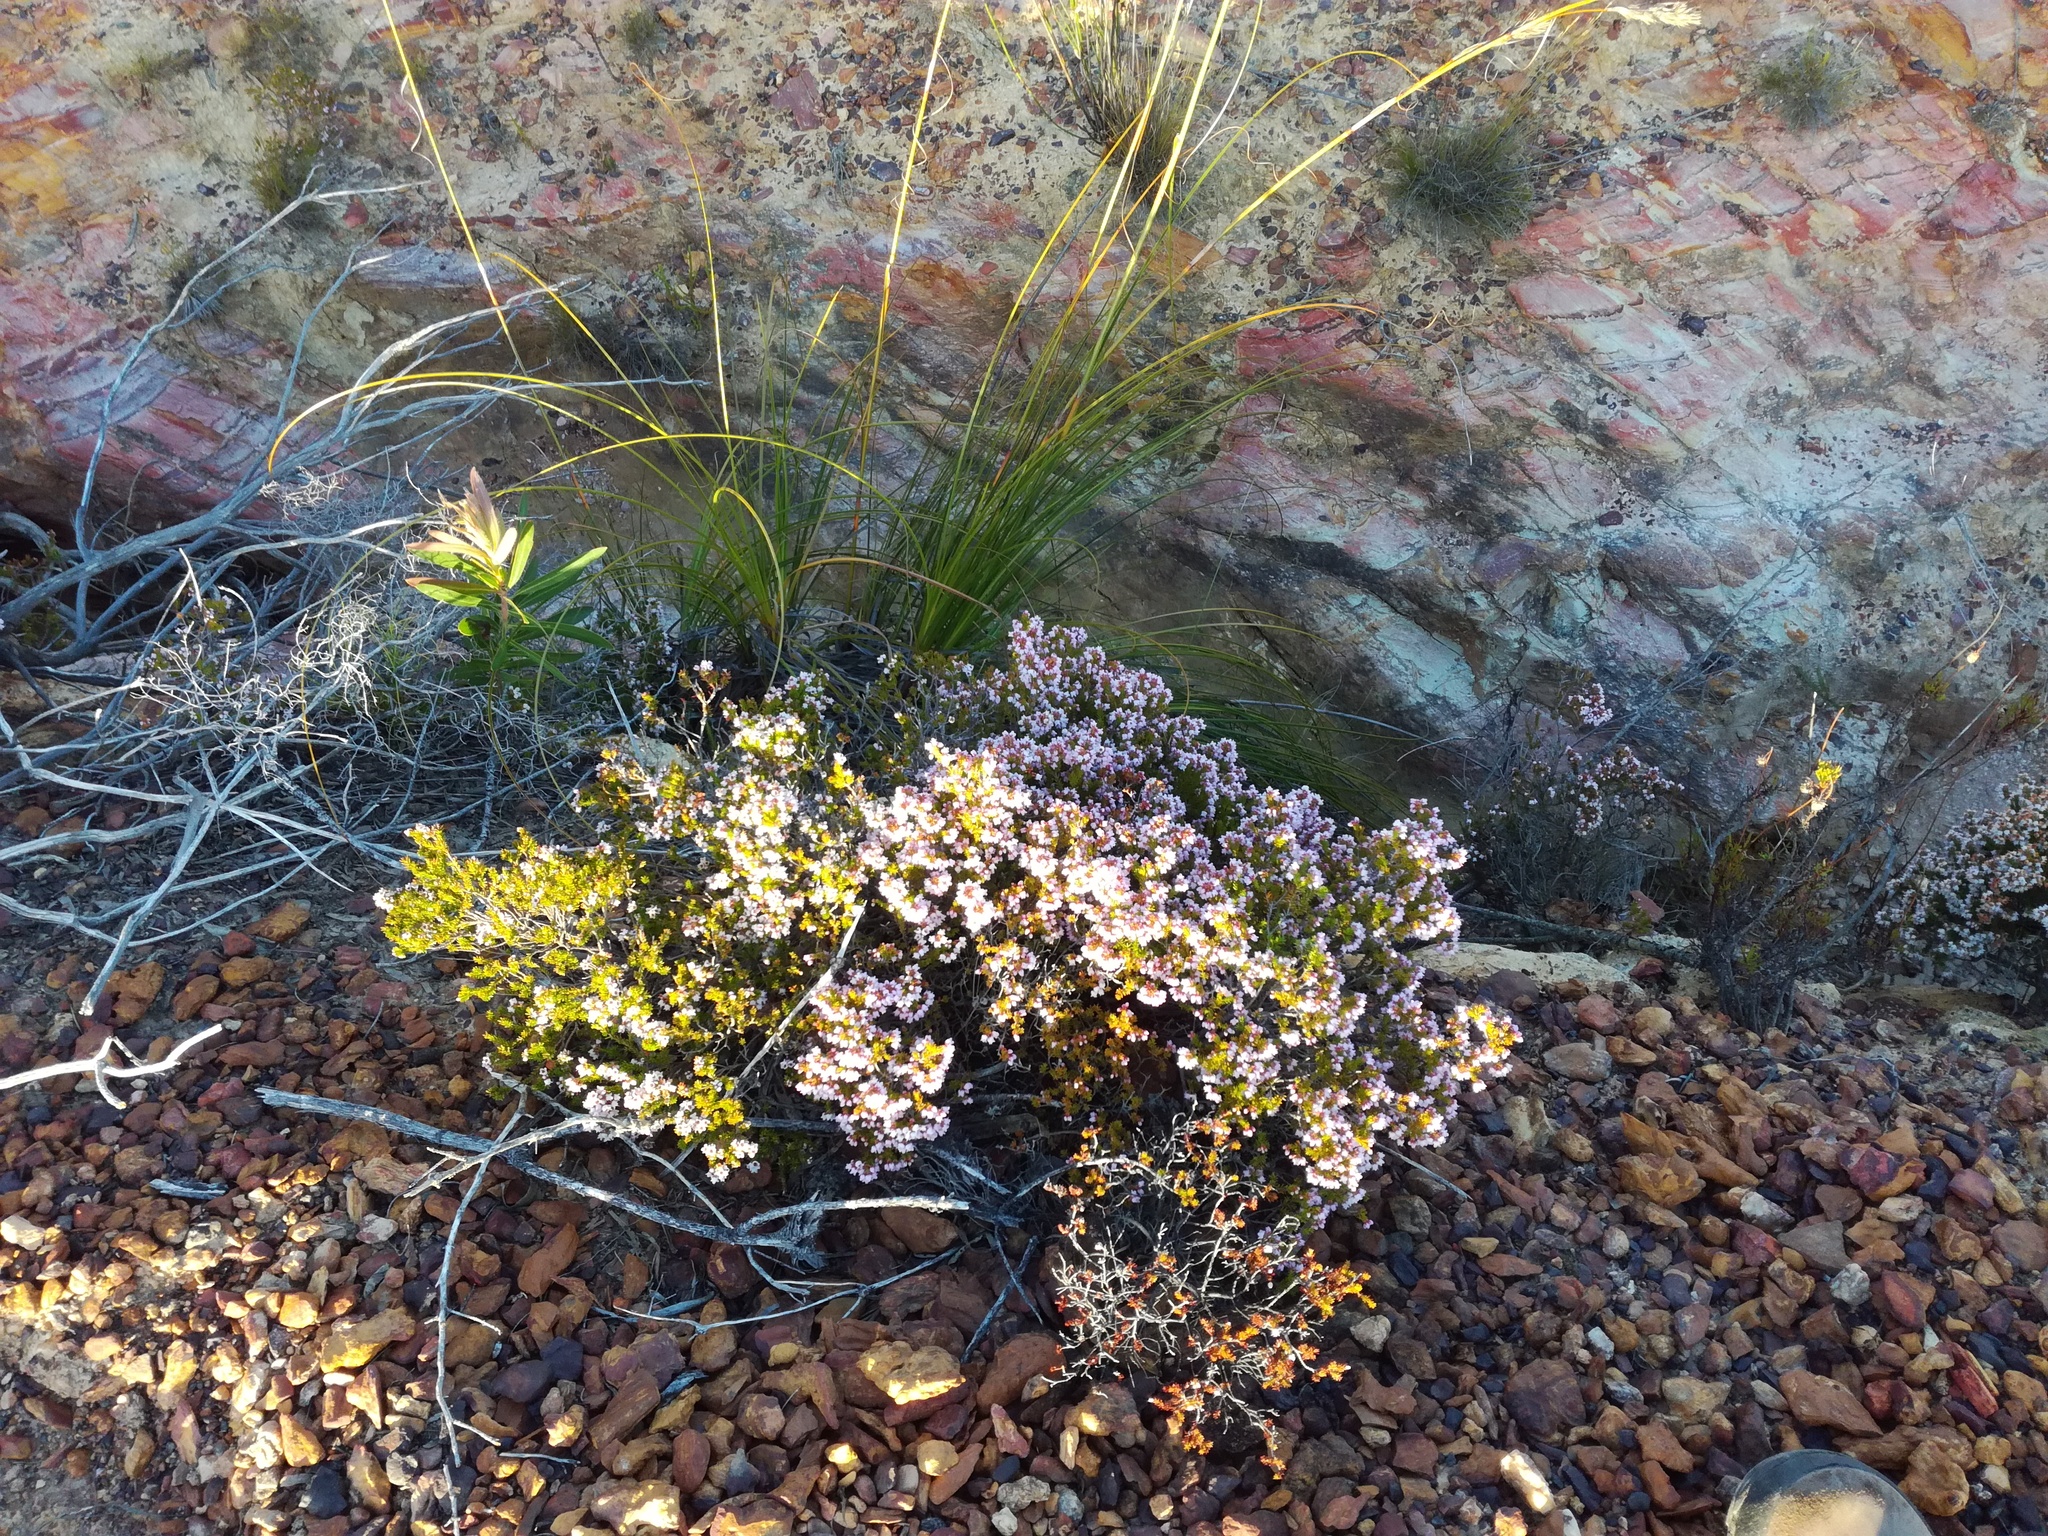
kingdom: Plantae
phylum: Tracheophyta
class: Magnoliopsida
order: Ericales
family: Ericaceae
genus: Erica
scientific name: Erica curvirostris
